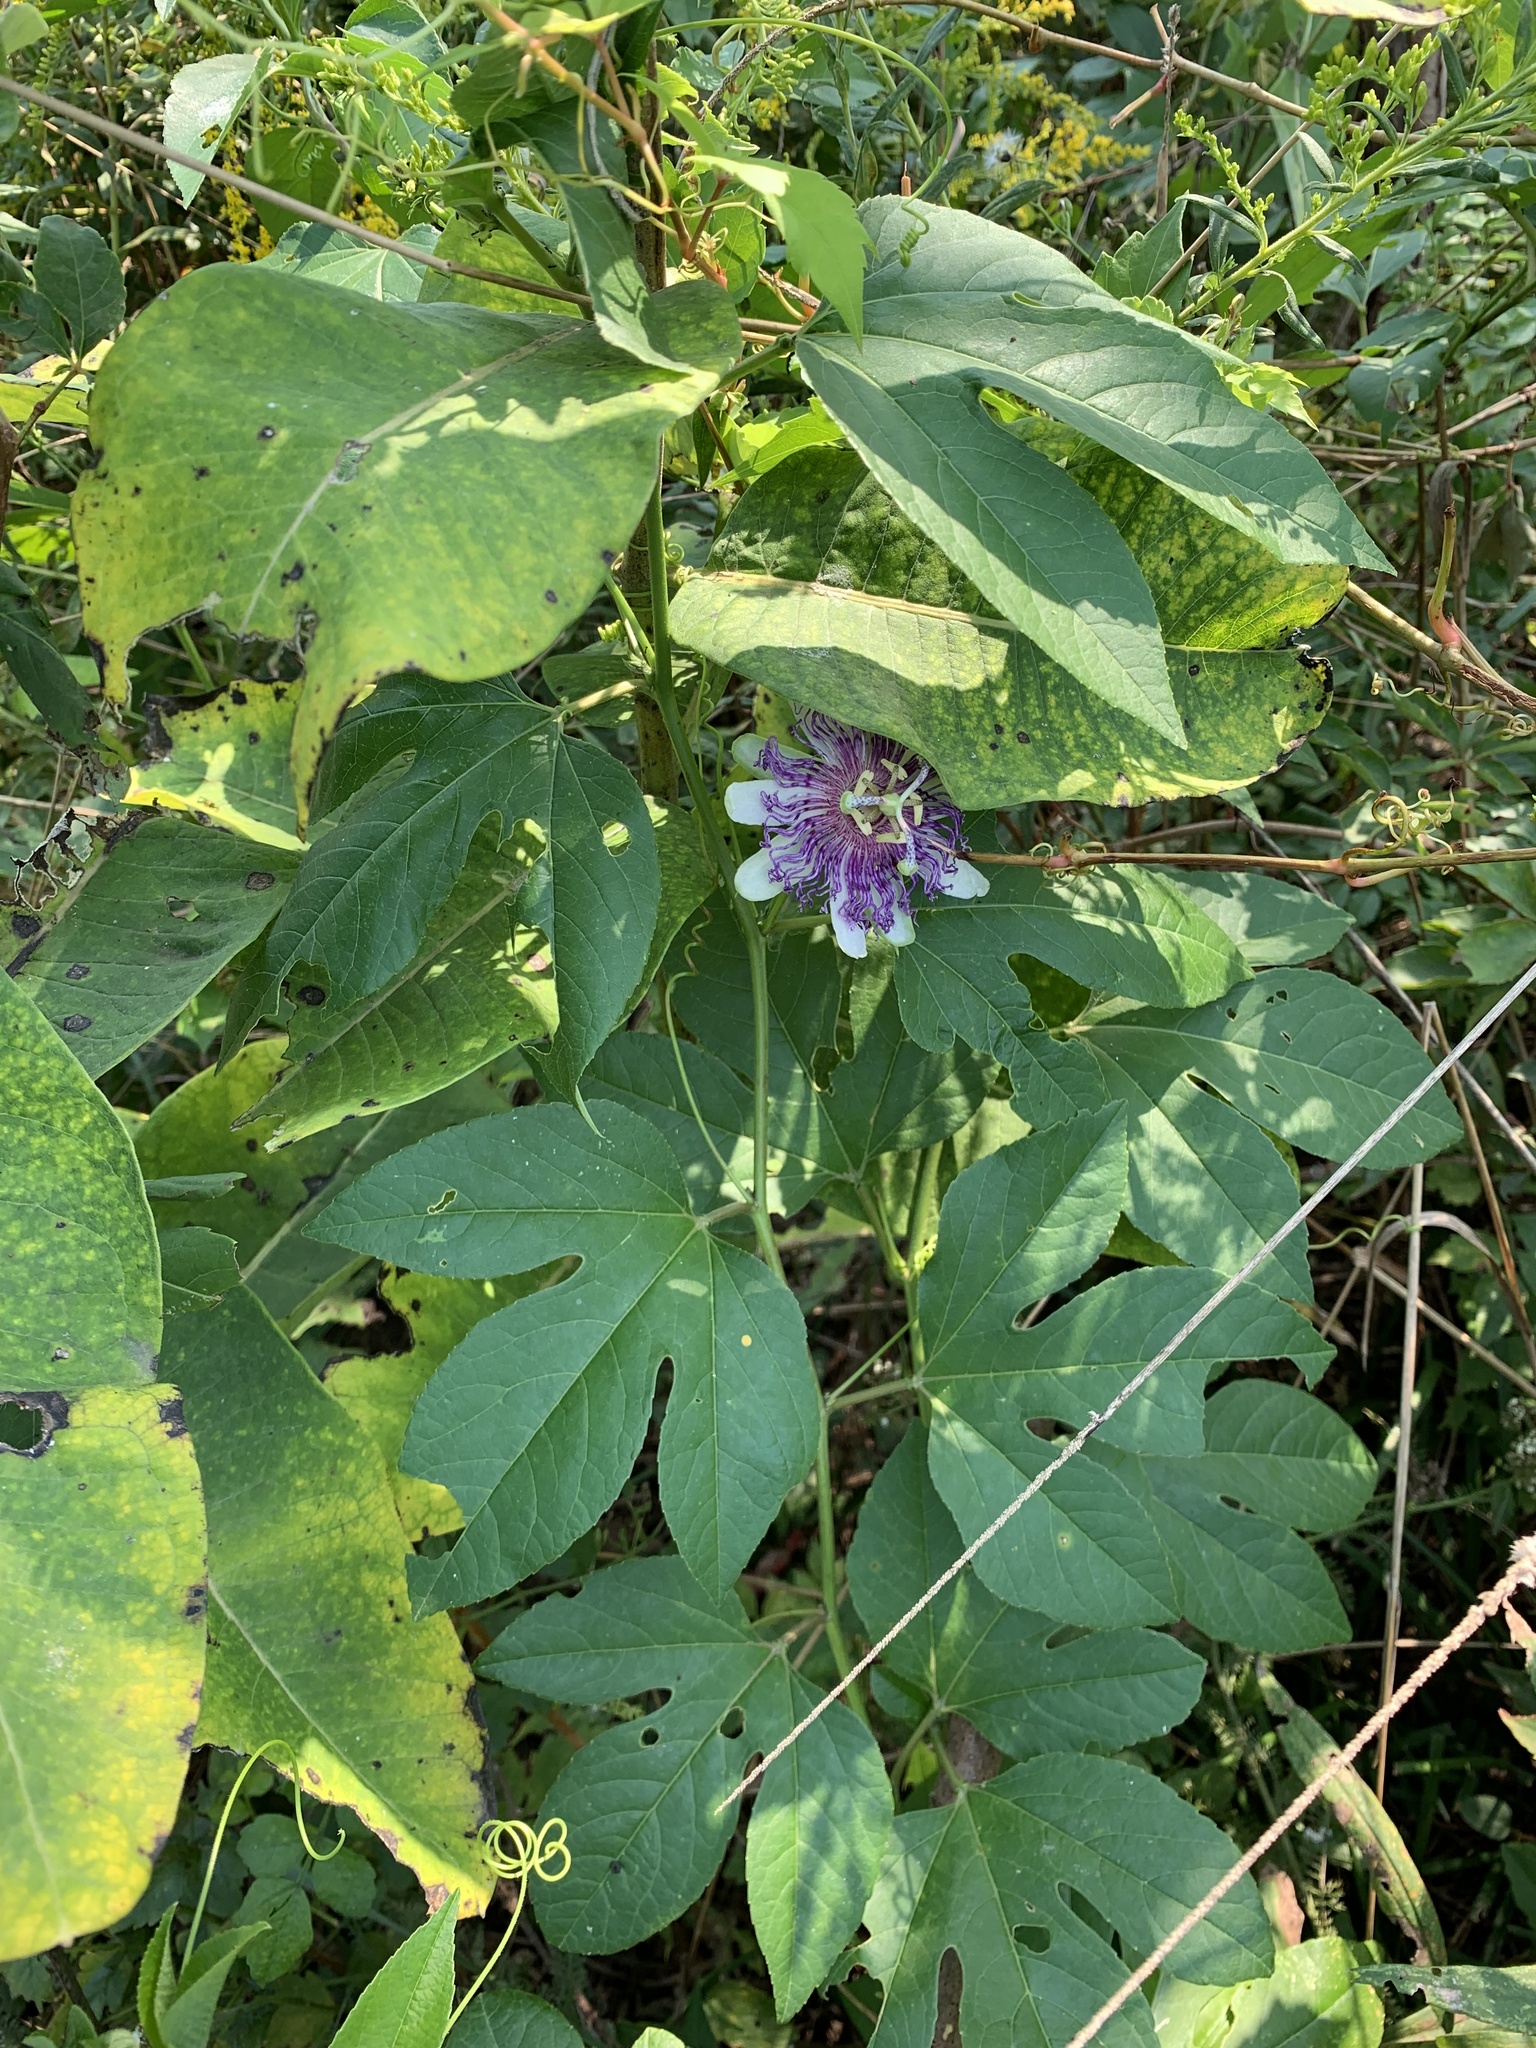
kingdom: Plantae
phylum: Tracheophyta
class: Magnoliopsida
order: Malpighiales
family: Passifloraceae
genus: Passiflora
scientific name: Passiflora incarnata
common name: Apricot-vine
